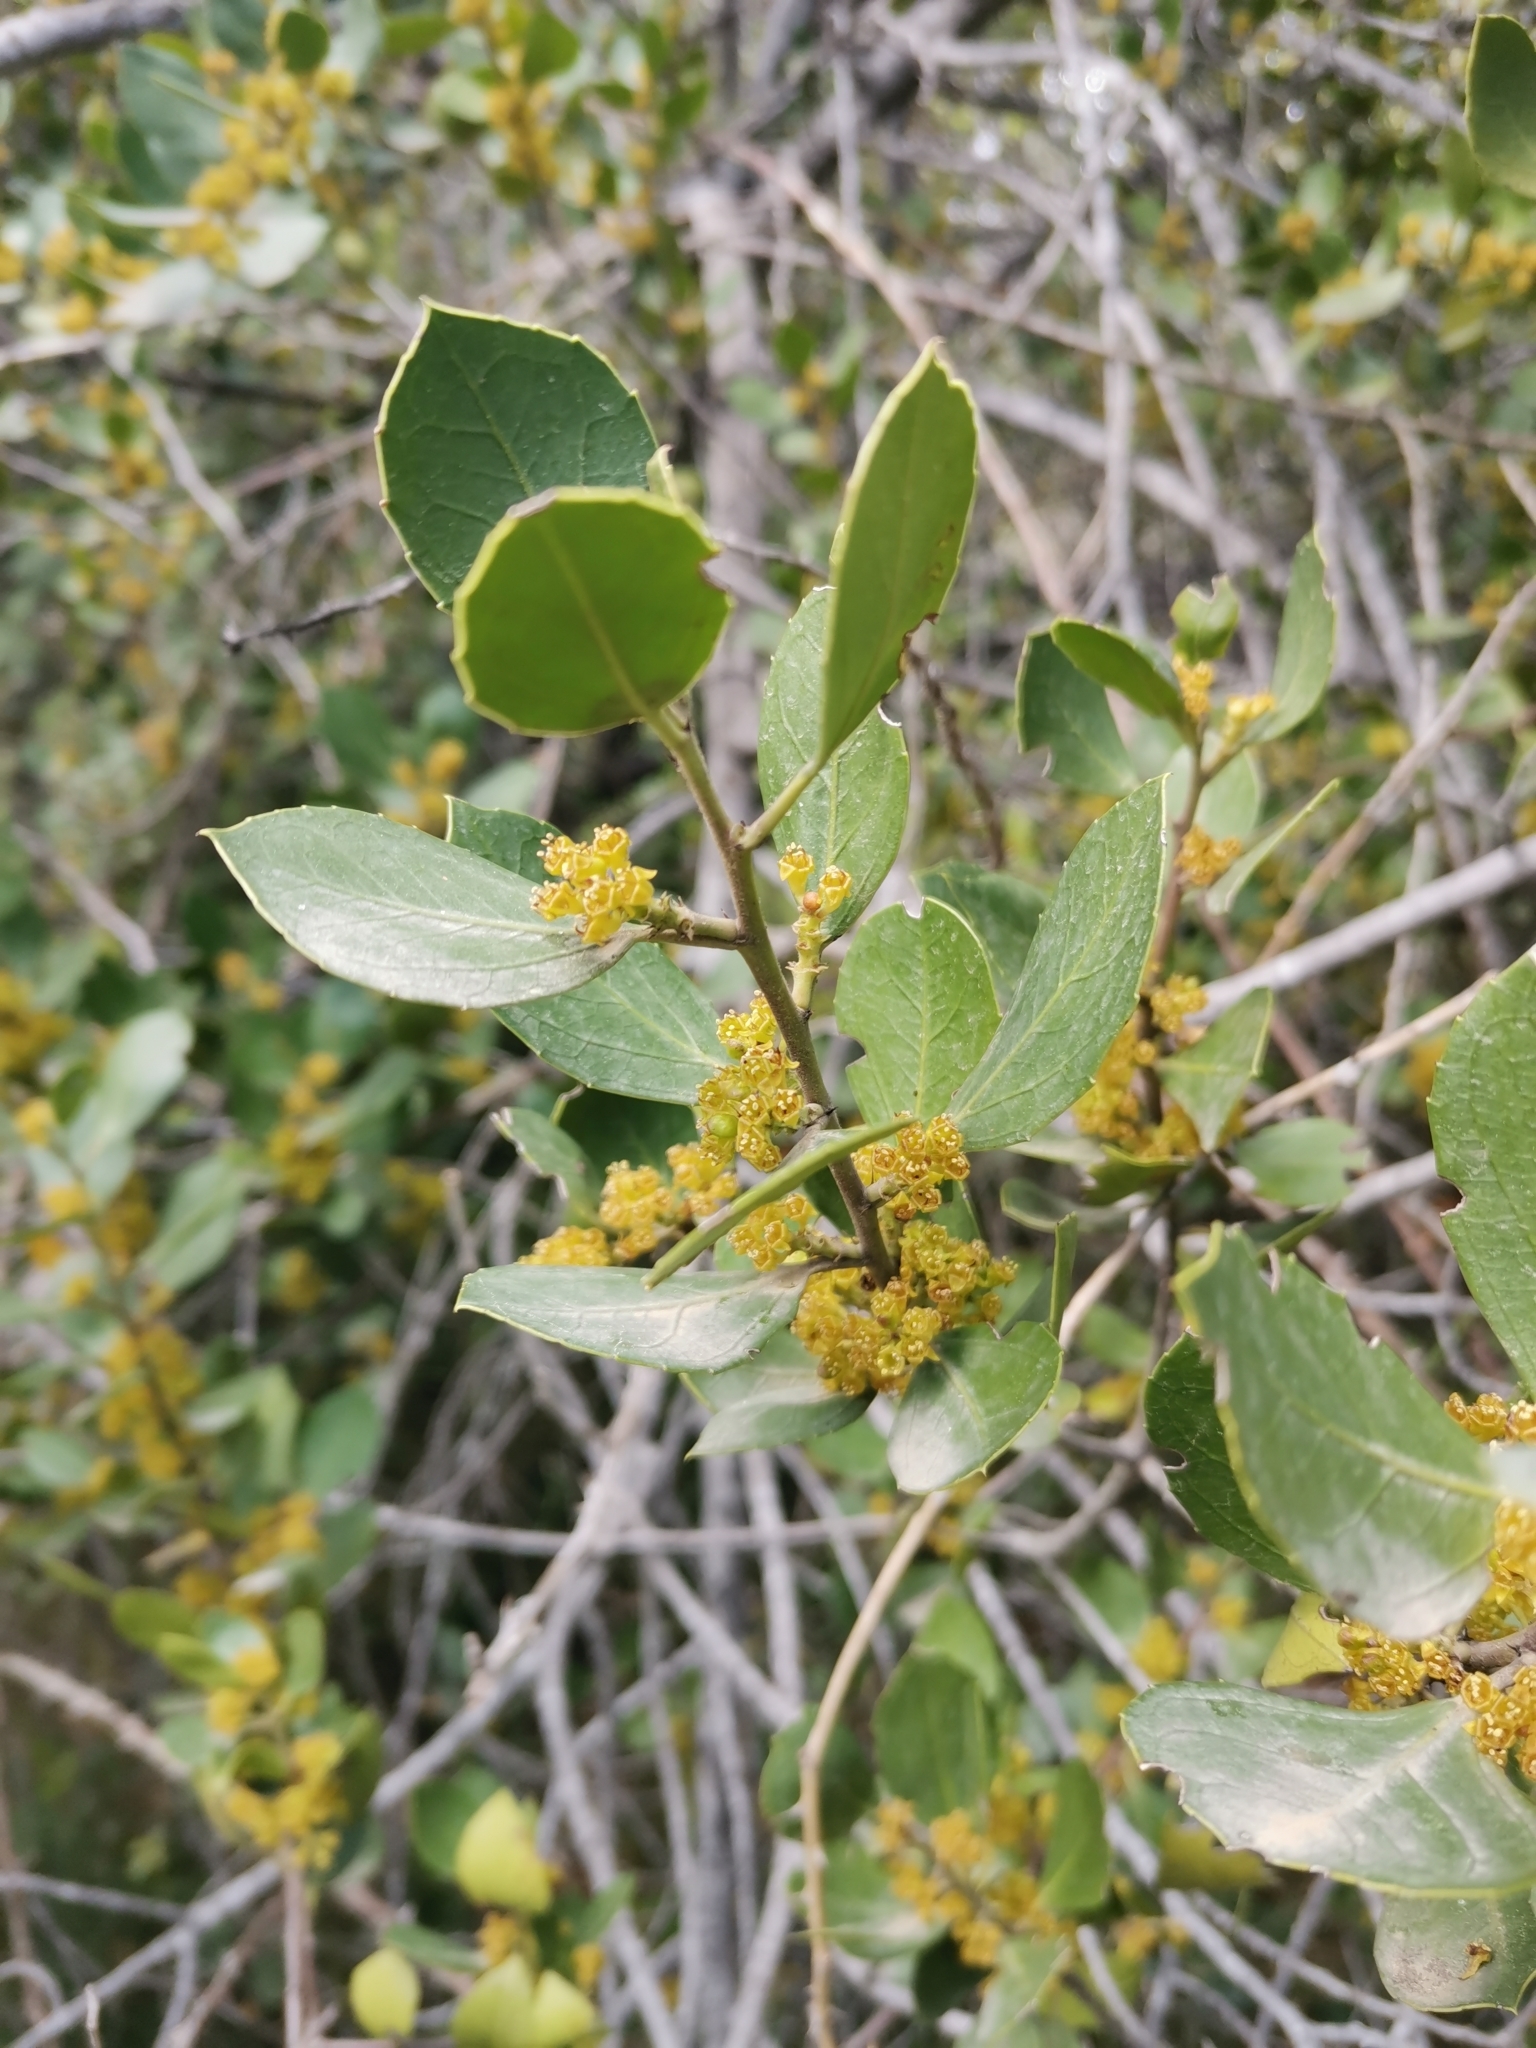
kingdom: Plantae
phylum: Tracheophyta
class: Magnoliopsida
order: Rosales
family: Rhamnaceae
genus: Rhamnus
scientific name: Rhamnus alaternus
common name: Mediterranean buckthorn
